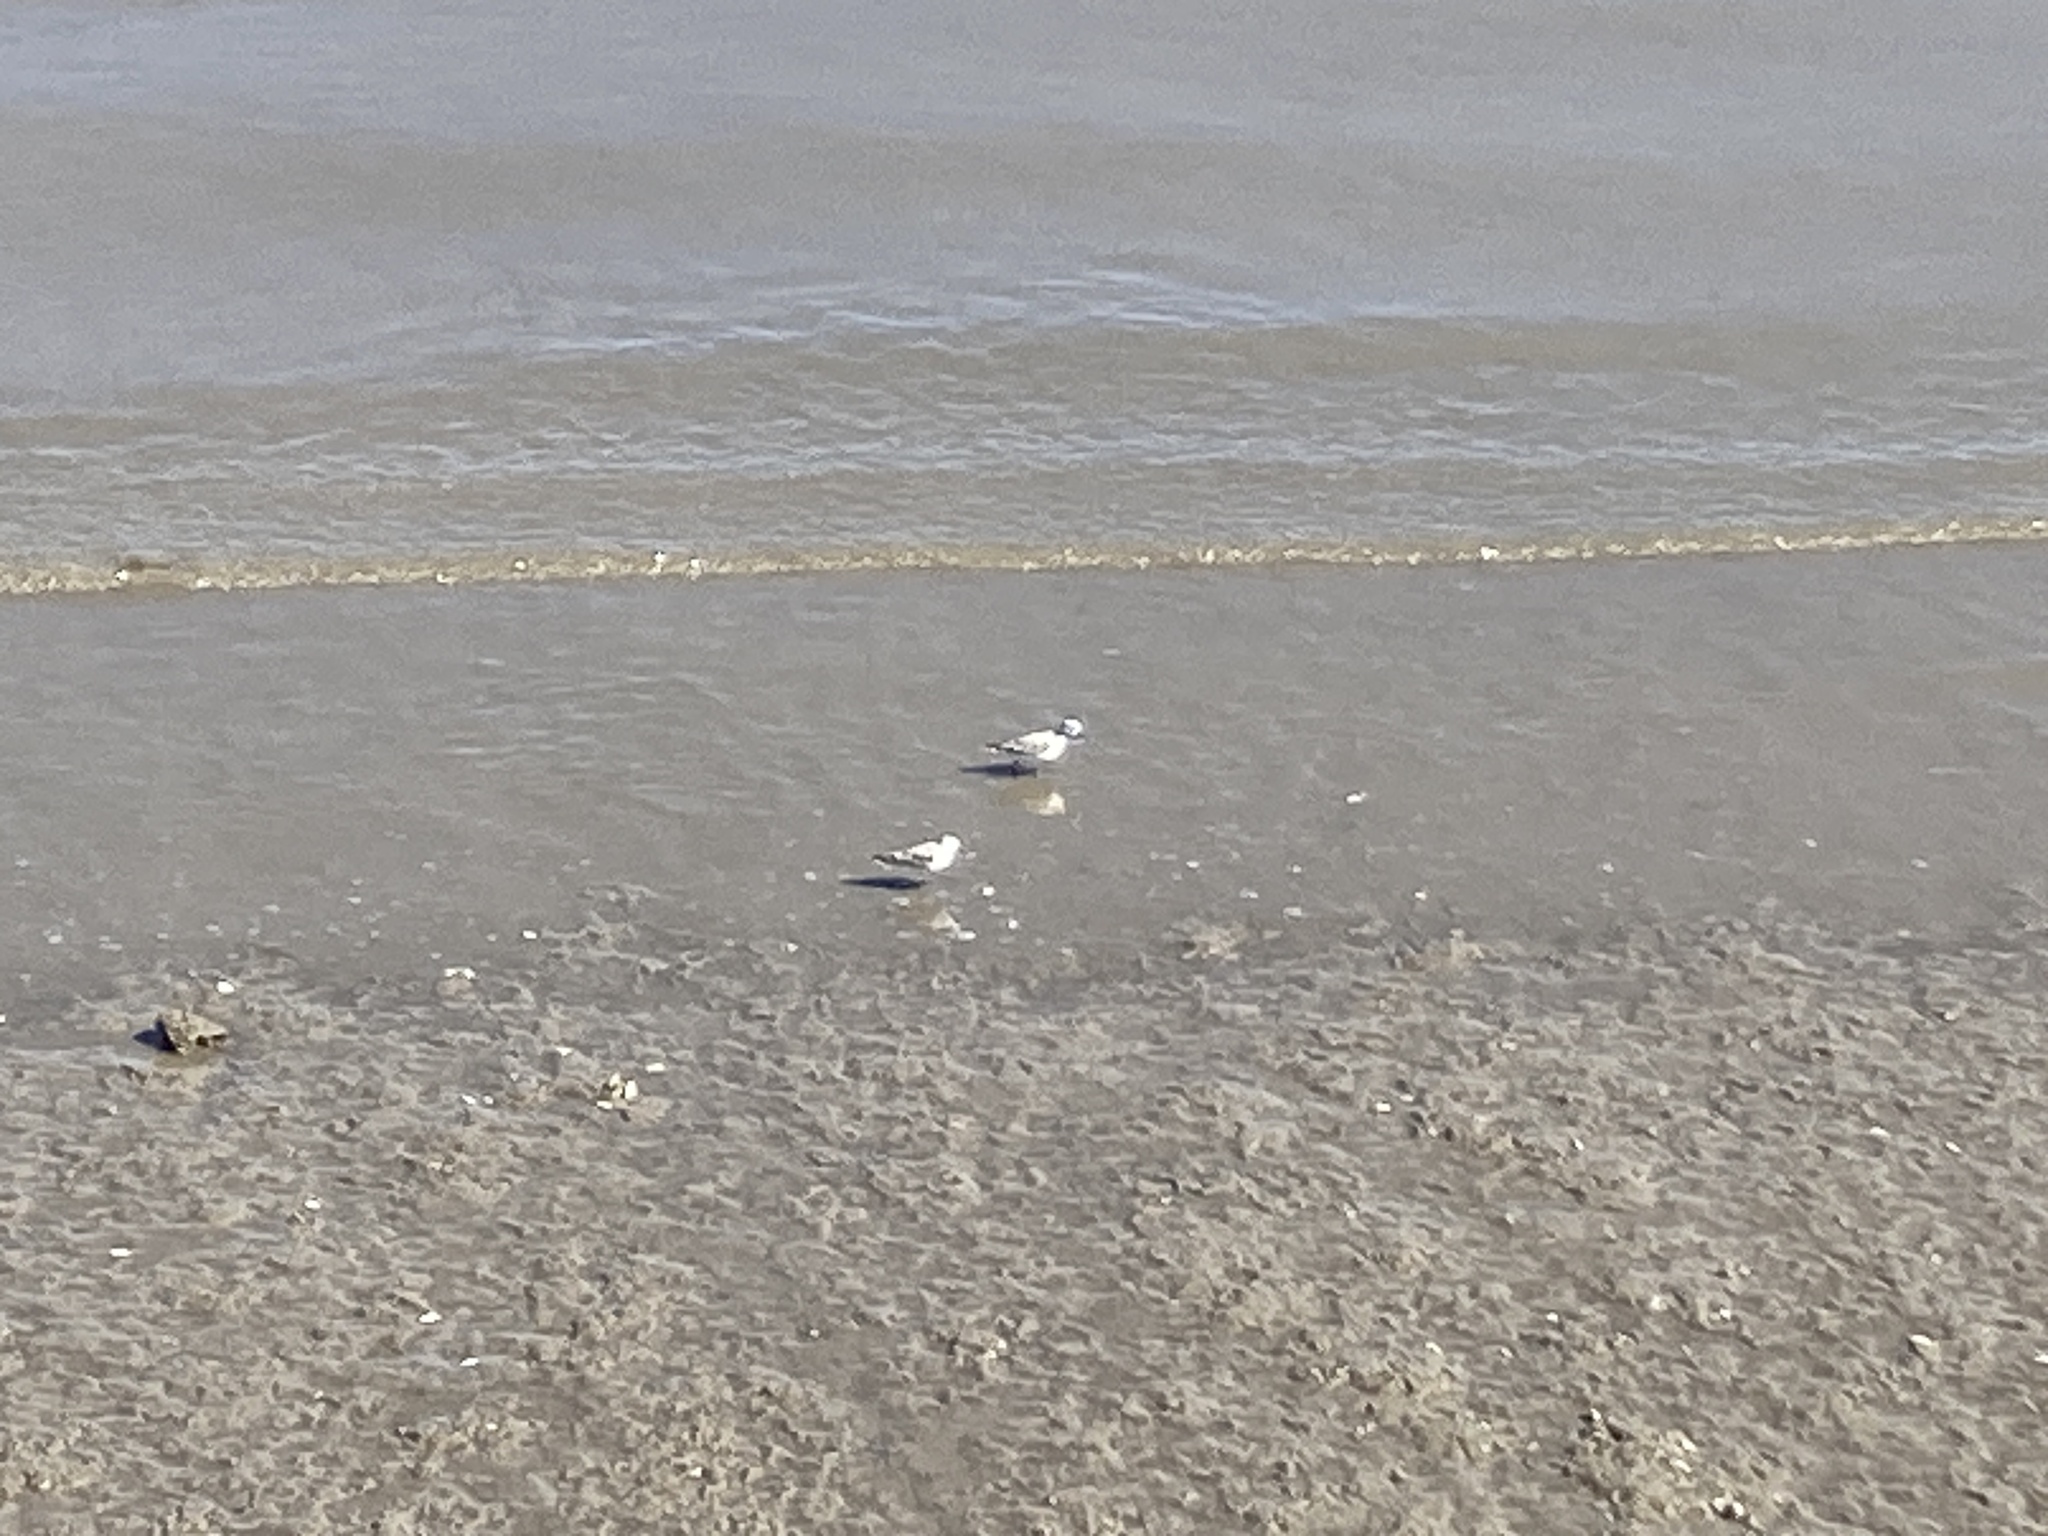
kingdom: Animalia
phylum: Chordata
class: Aves
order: Charadriiformes
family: Scolopacidae
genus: Calidris
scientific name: Calidris alba
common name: Sanderling
